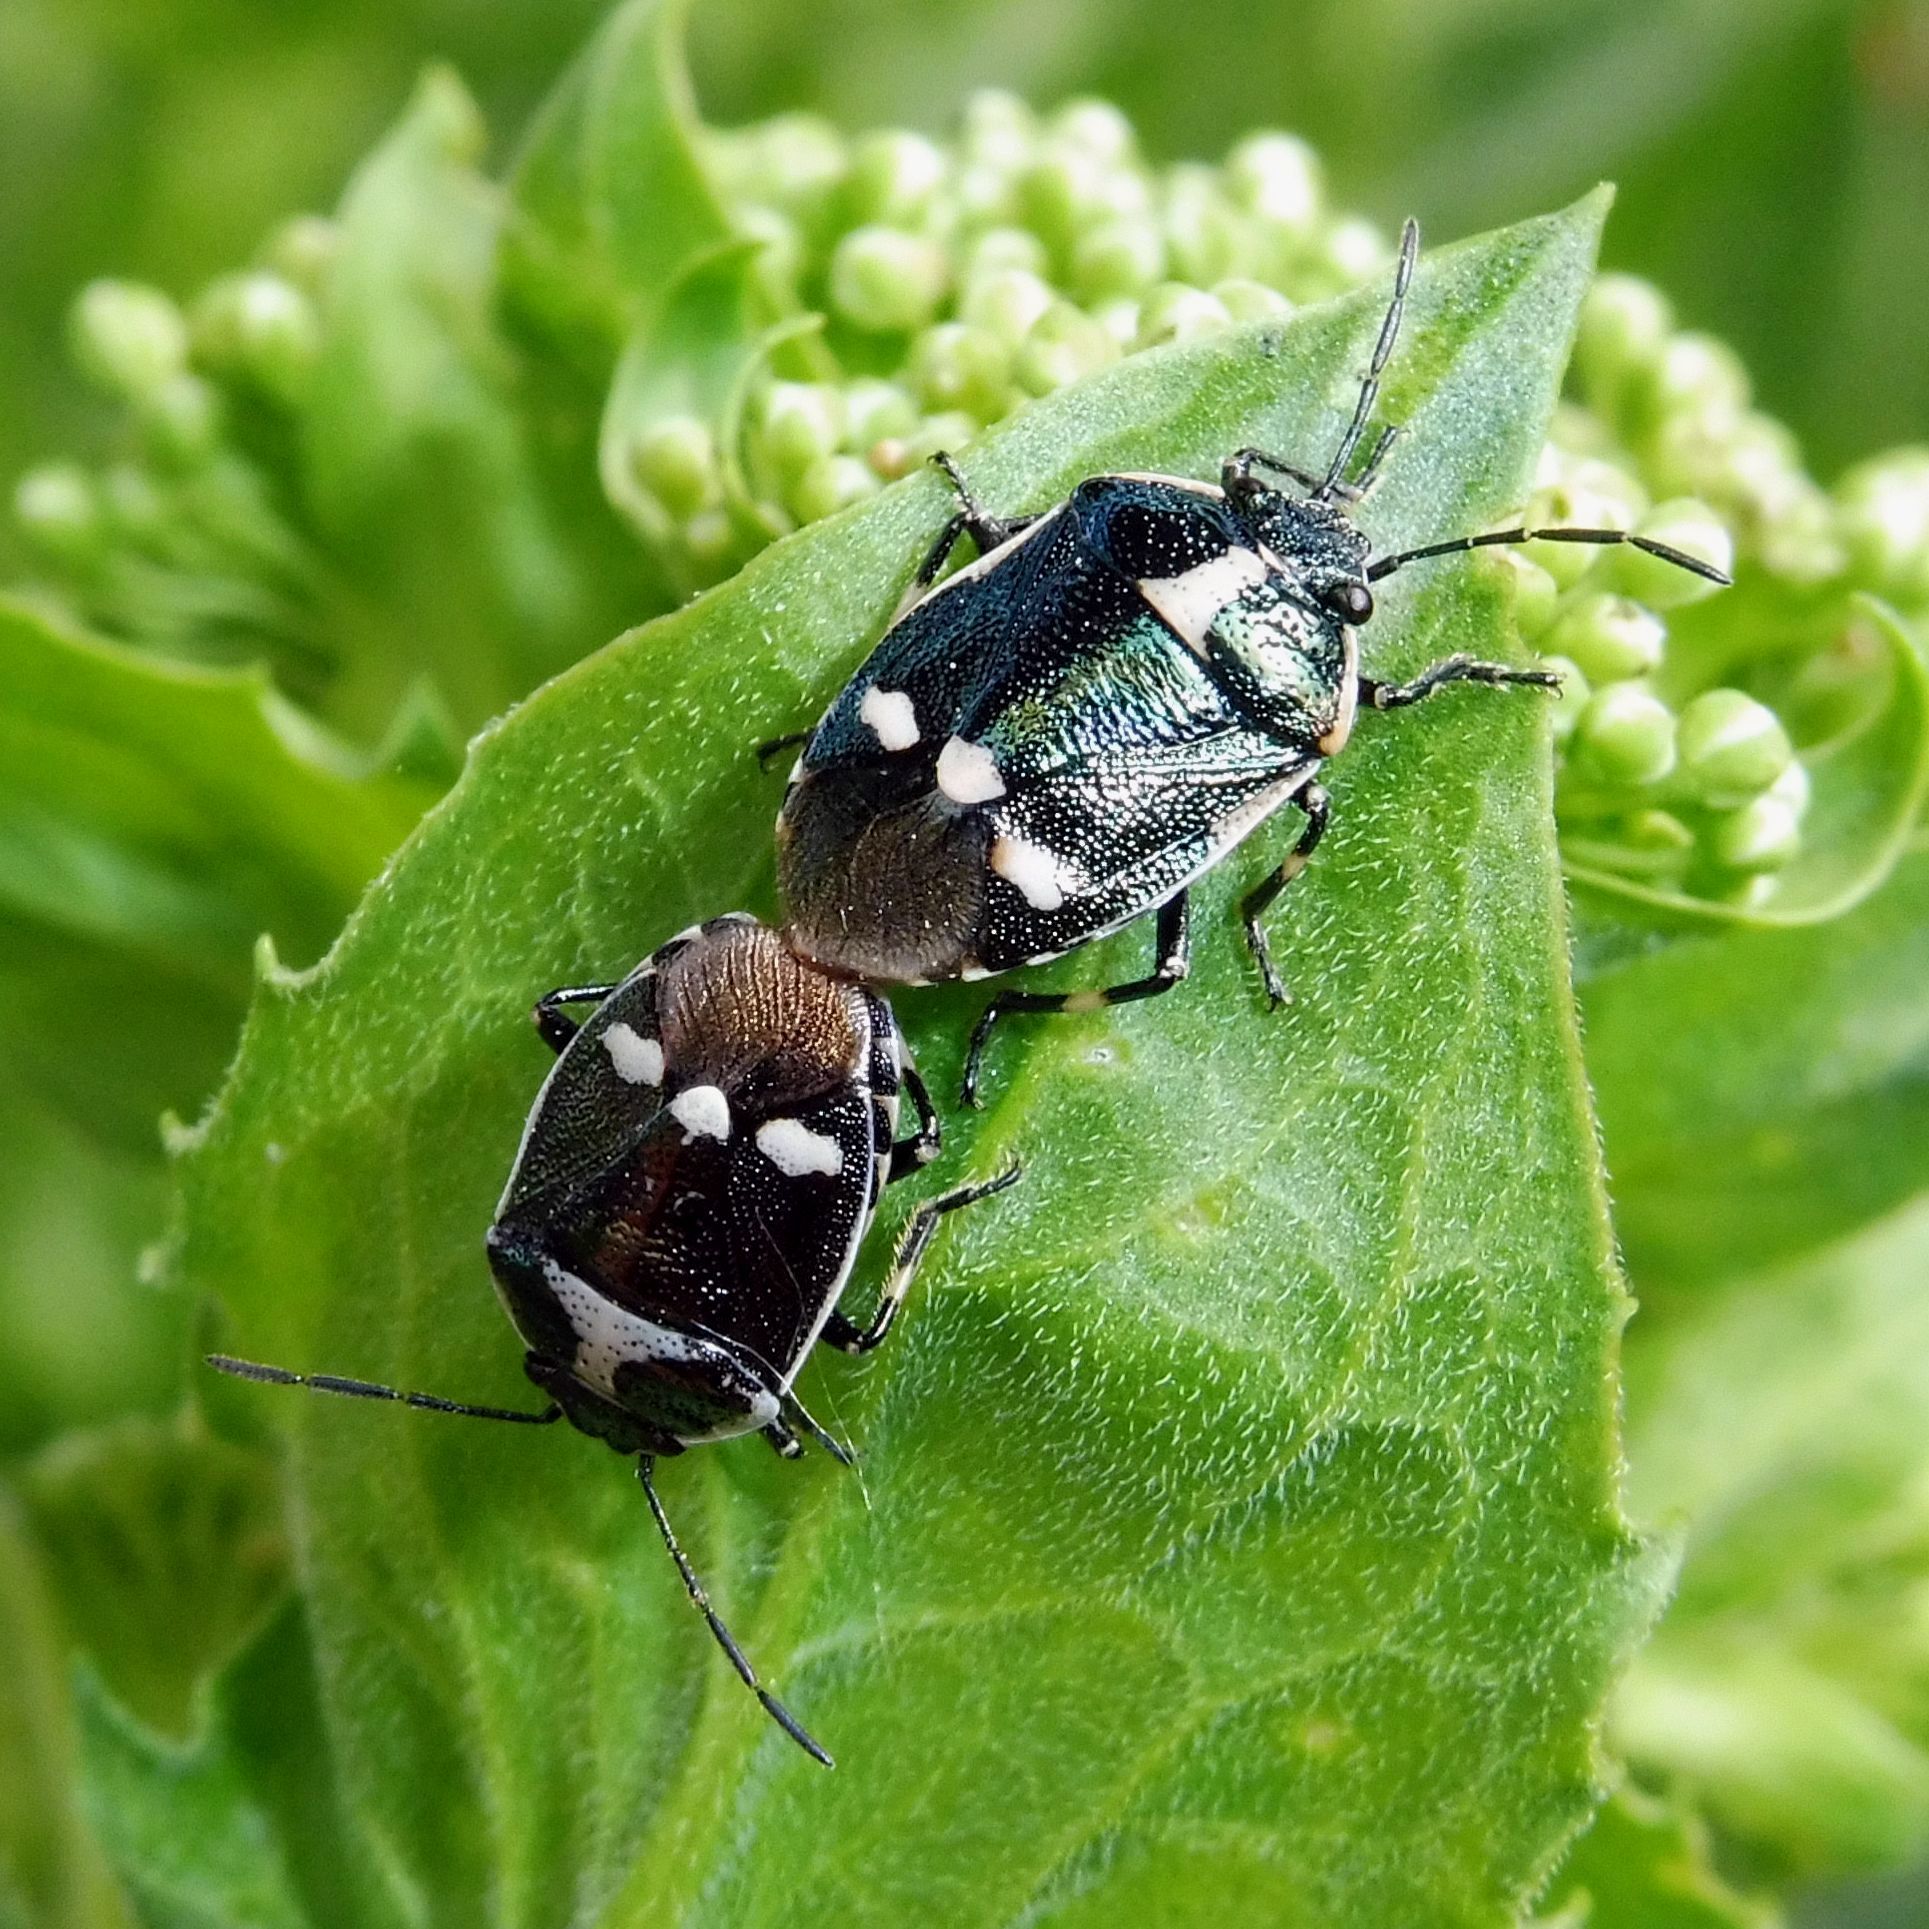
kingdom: Animalia
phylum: Arthropoda
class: Insecta
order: Hemiptera
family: Pentatomidae
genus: Eurydema
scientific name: Eurydema oleracea
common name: Cabbage bug
